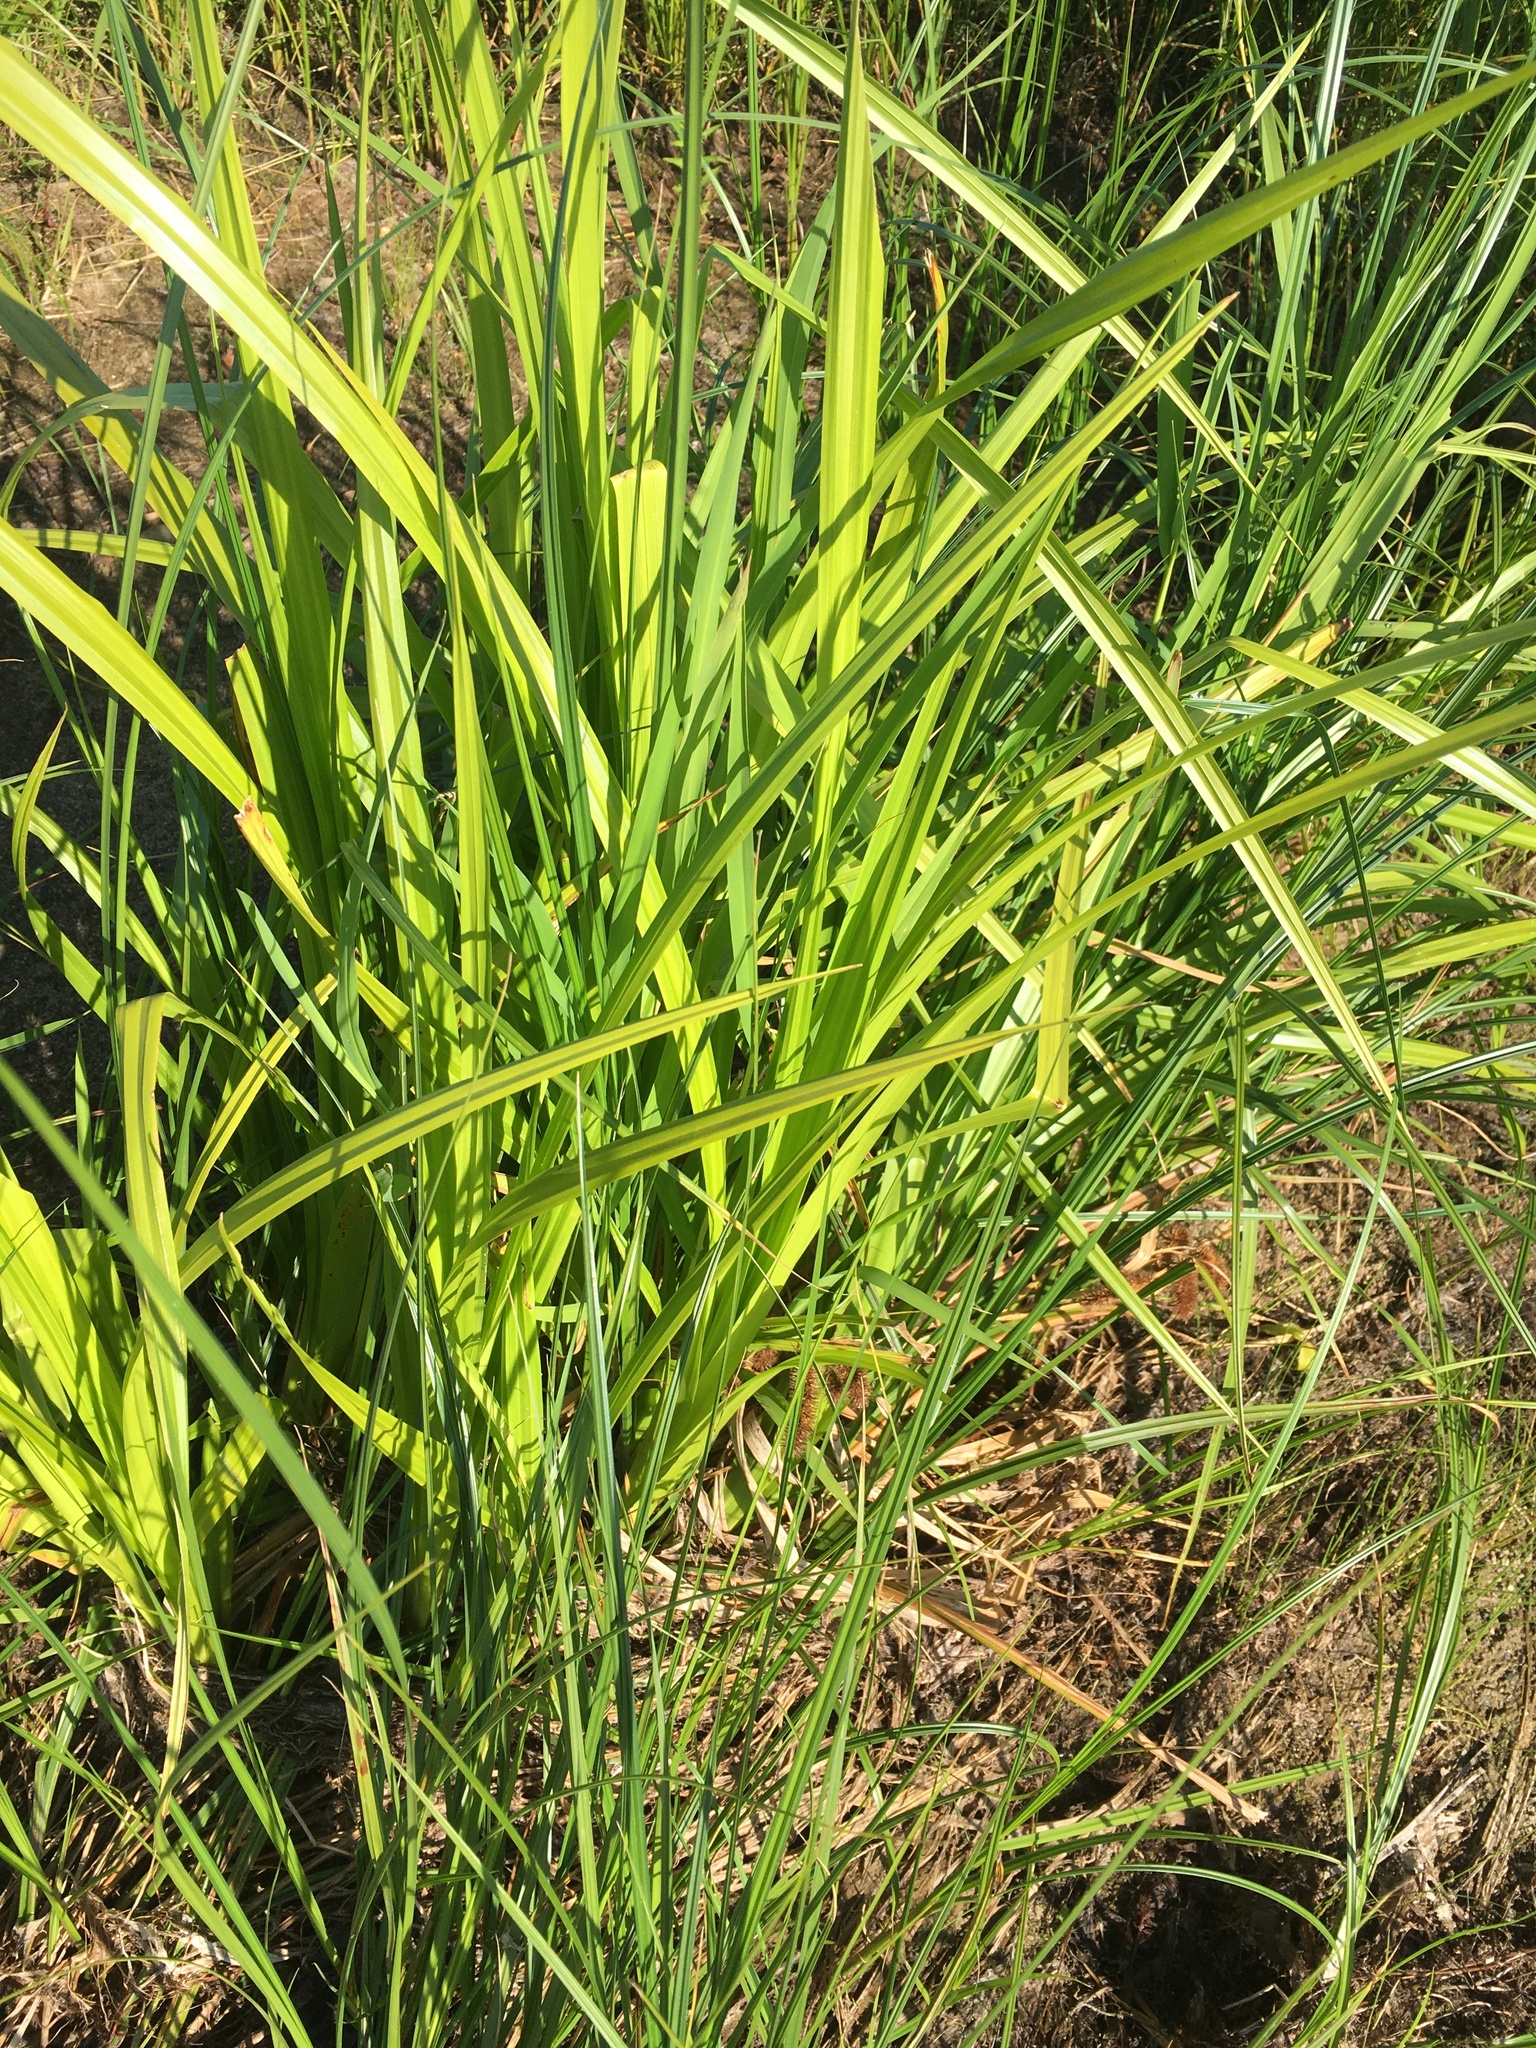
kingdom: Plantae
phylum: Tracheophyta
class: Liliopsida
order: Poales
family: Cyperaceae
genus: Carex
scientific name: Carex comosa
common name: Bristly sedge
